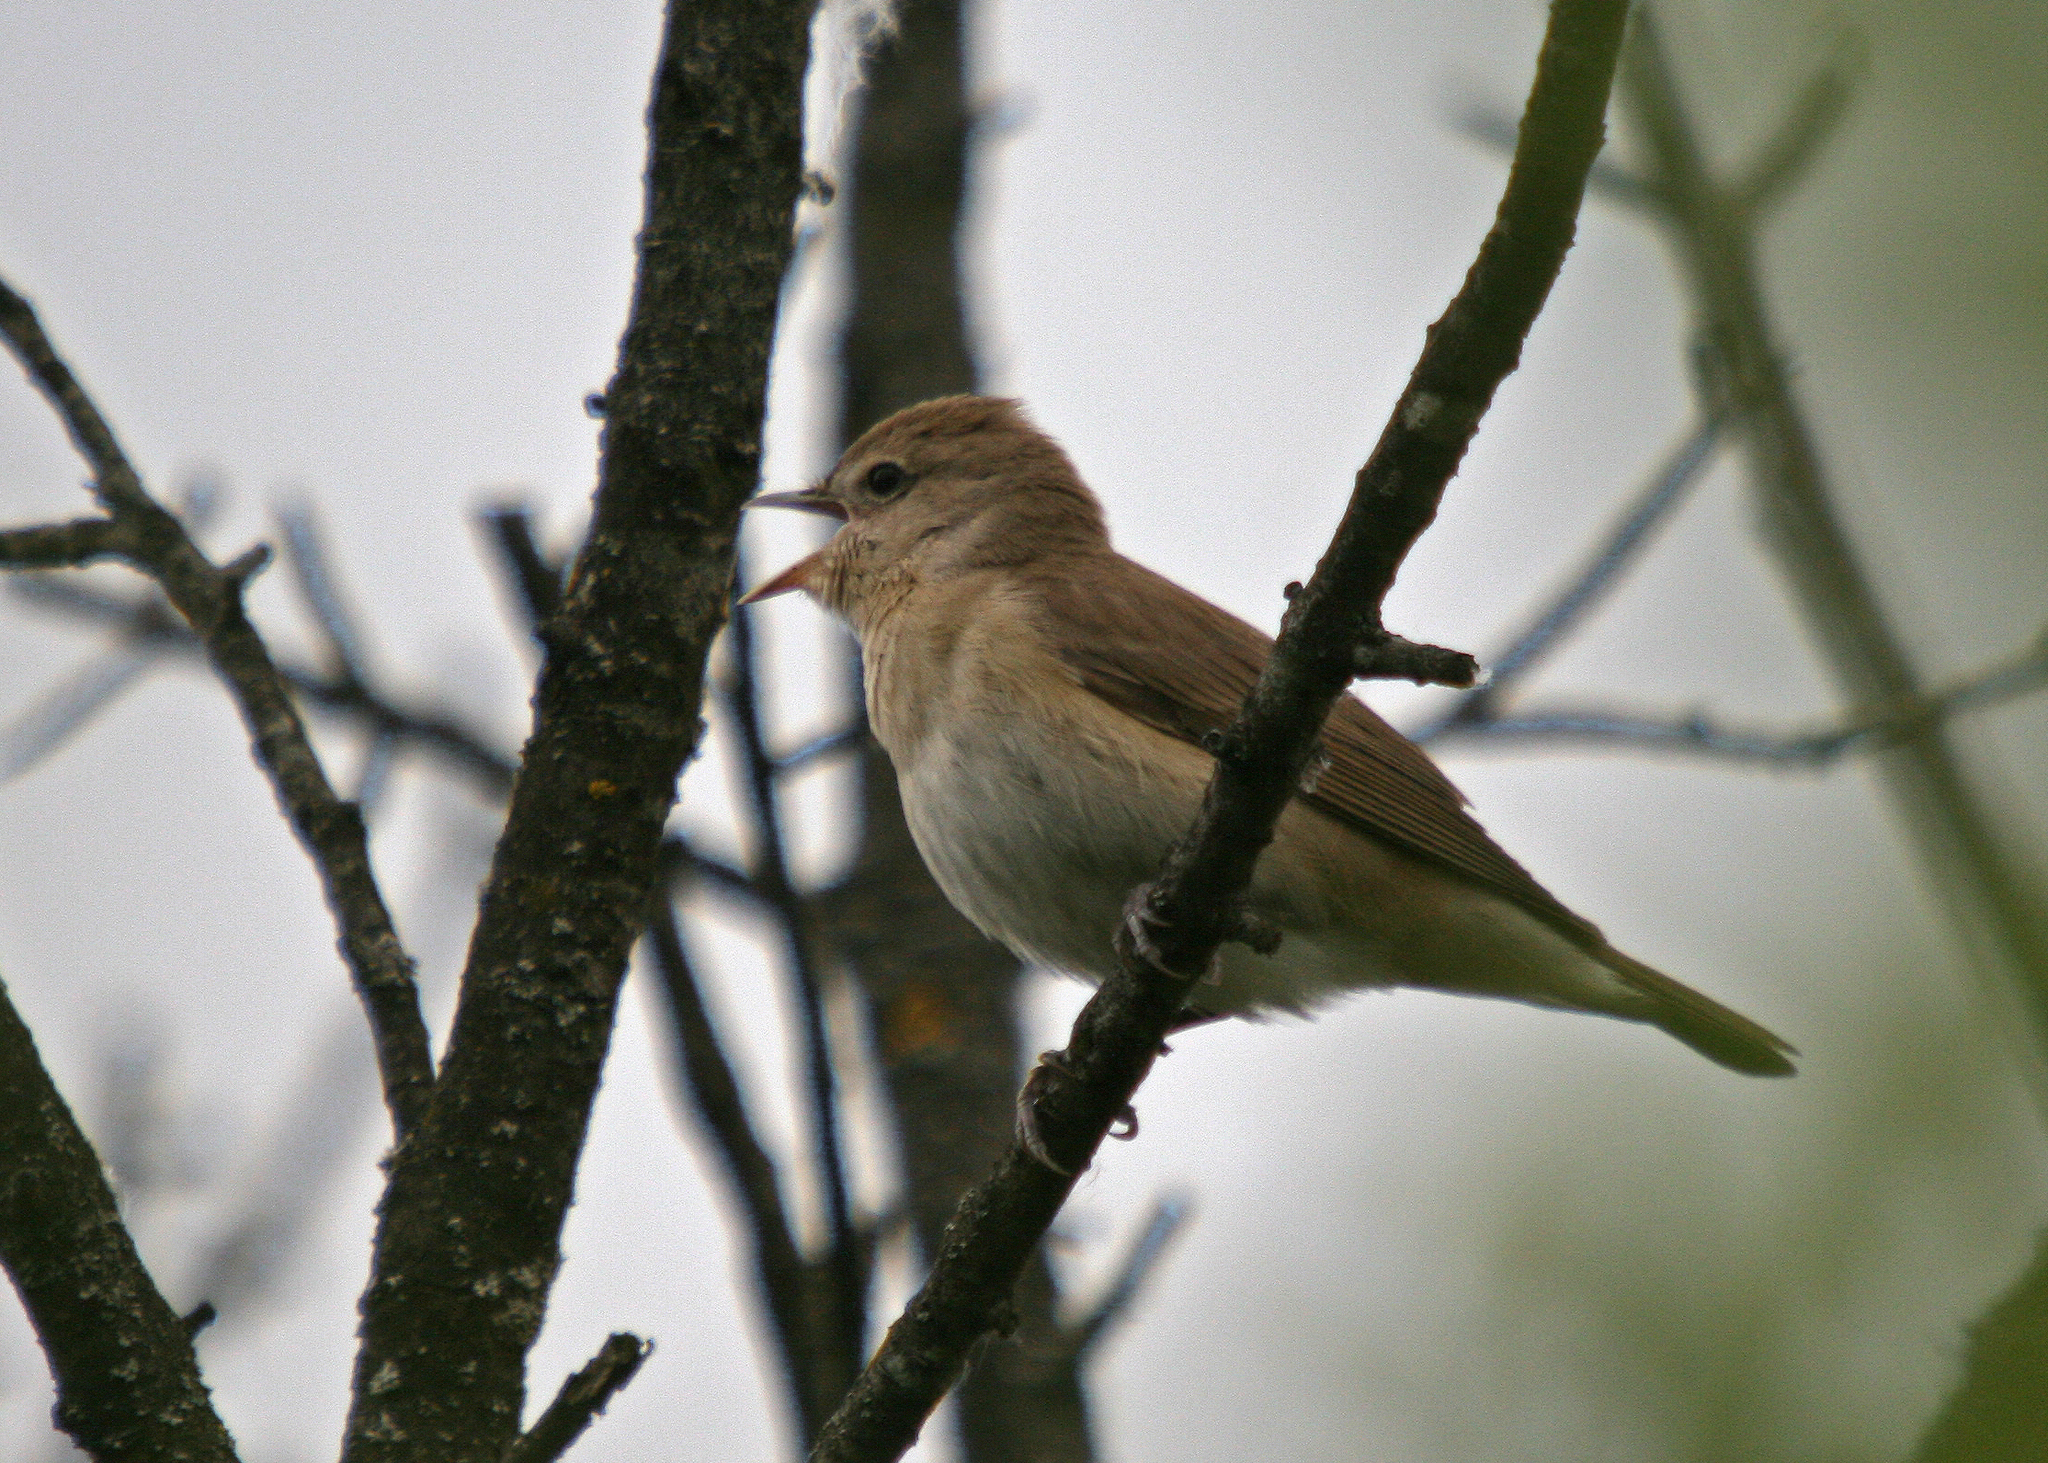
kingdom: Animalia
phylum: Chordata
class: Aves
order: Passeriformes
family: Sylviidae
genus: Sylvia
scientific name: Sylvia borin
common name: Garden warbler
